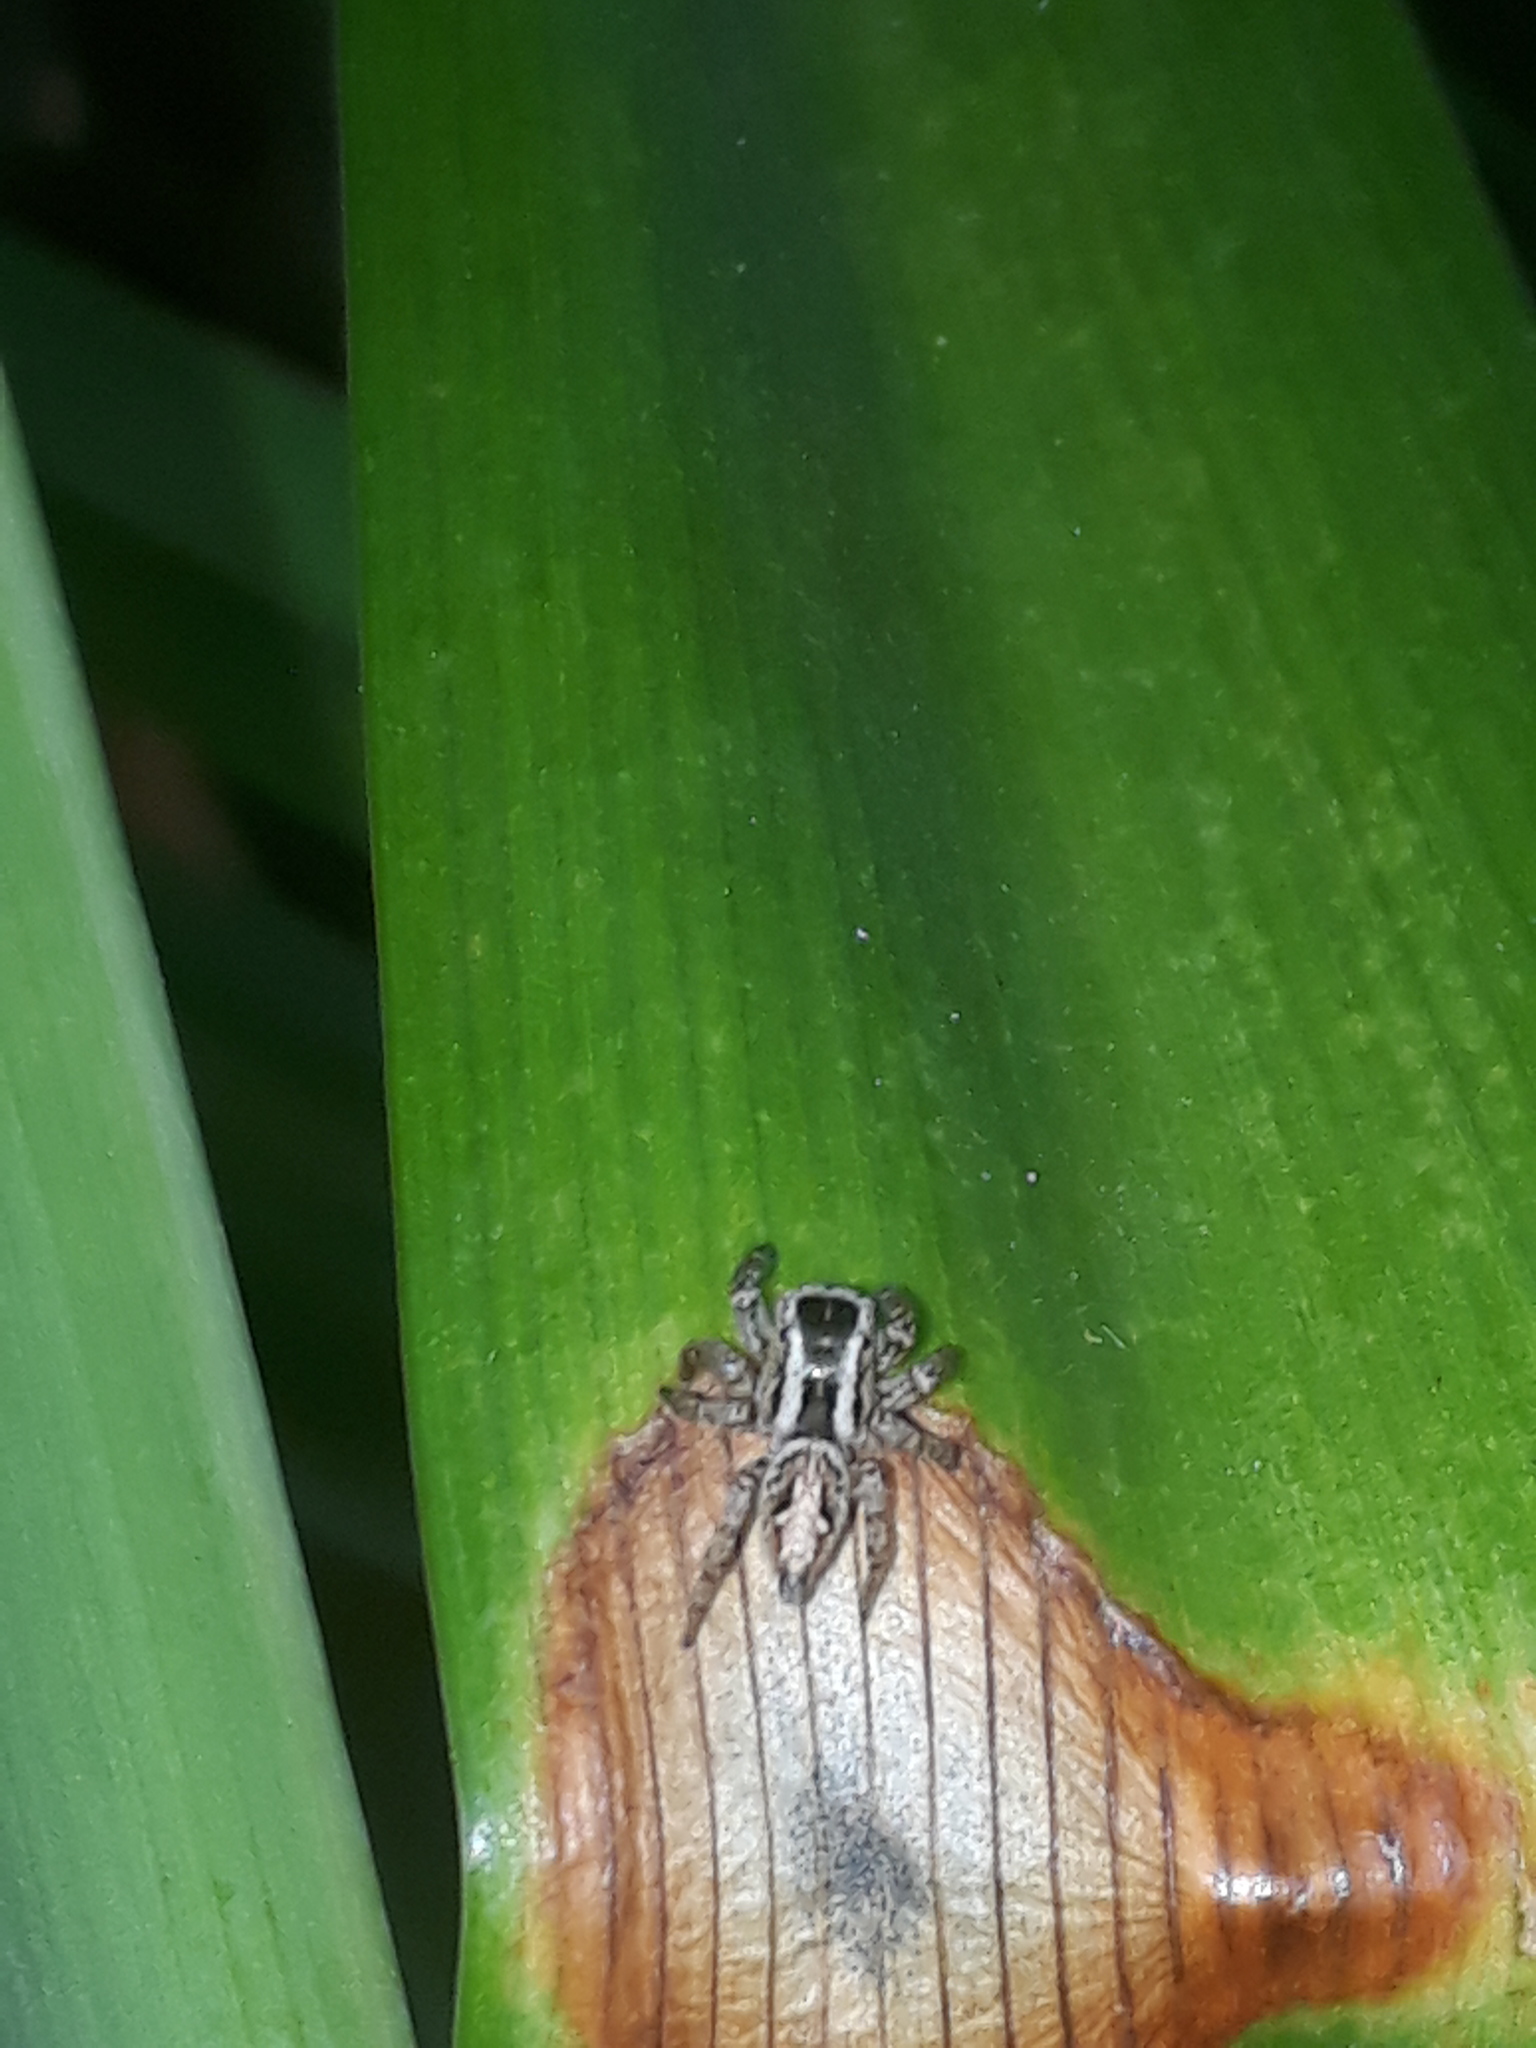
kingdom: Animalia
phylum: Arthropoda
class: Arachnida
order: Araneae
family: Salticidae
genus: Aphirape
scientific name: Aphirape misionensis
